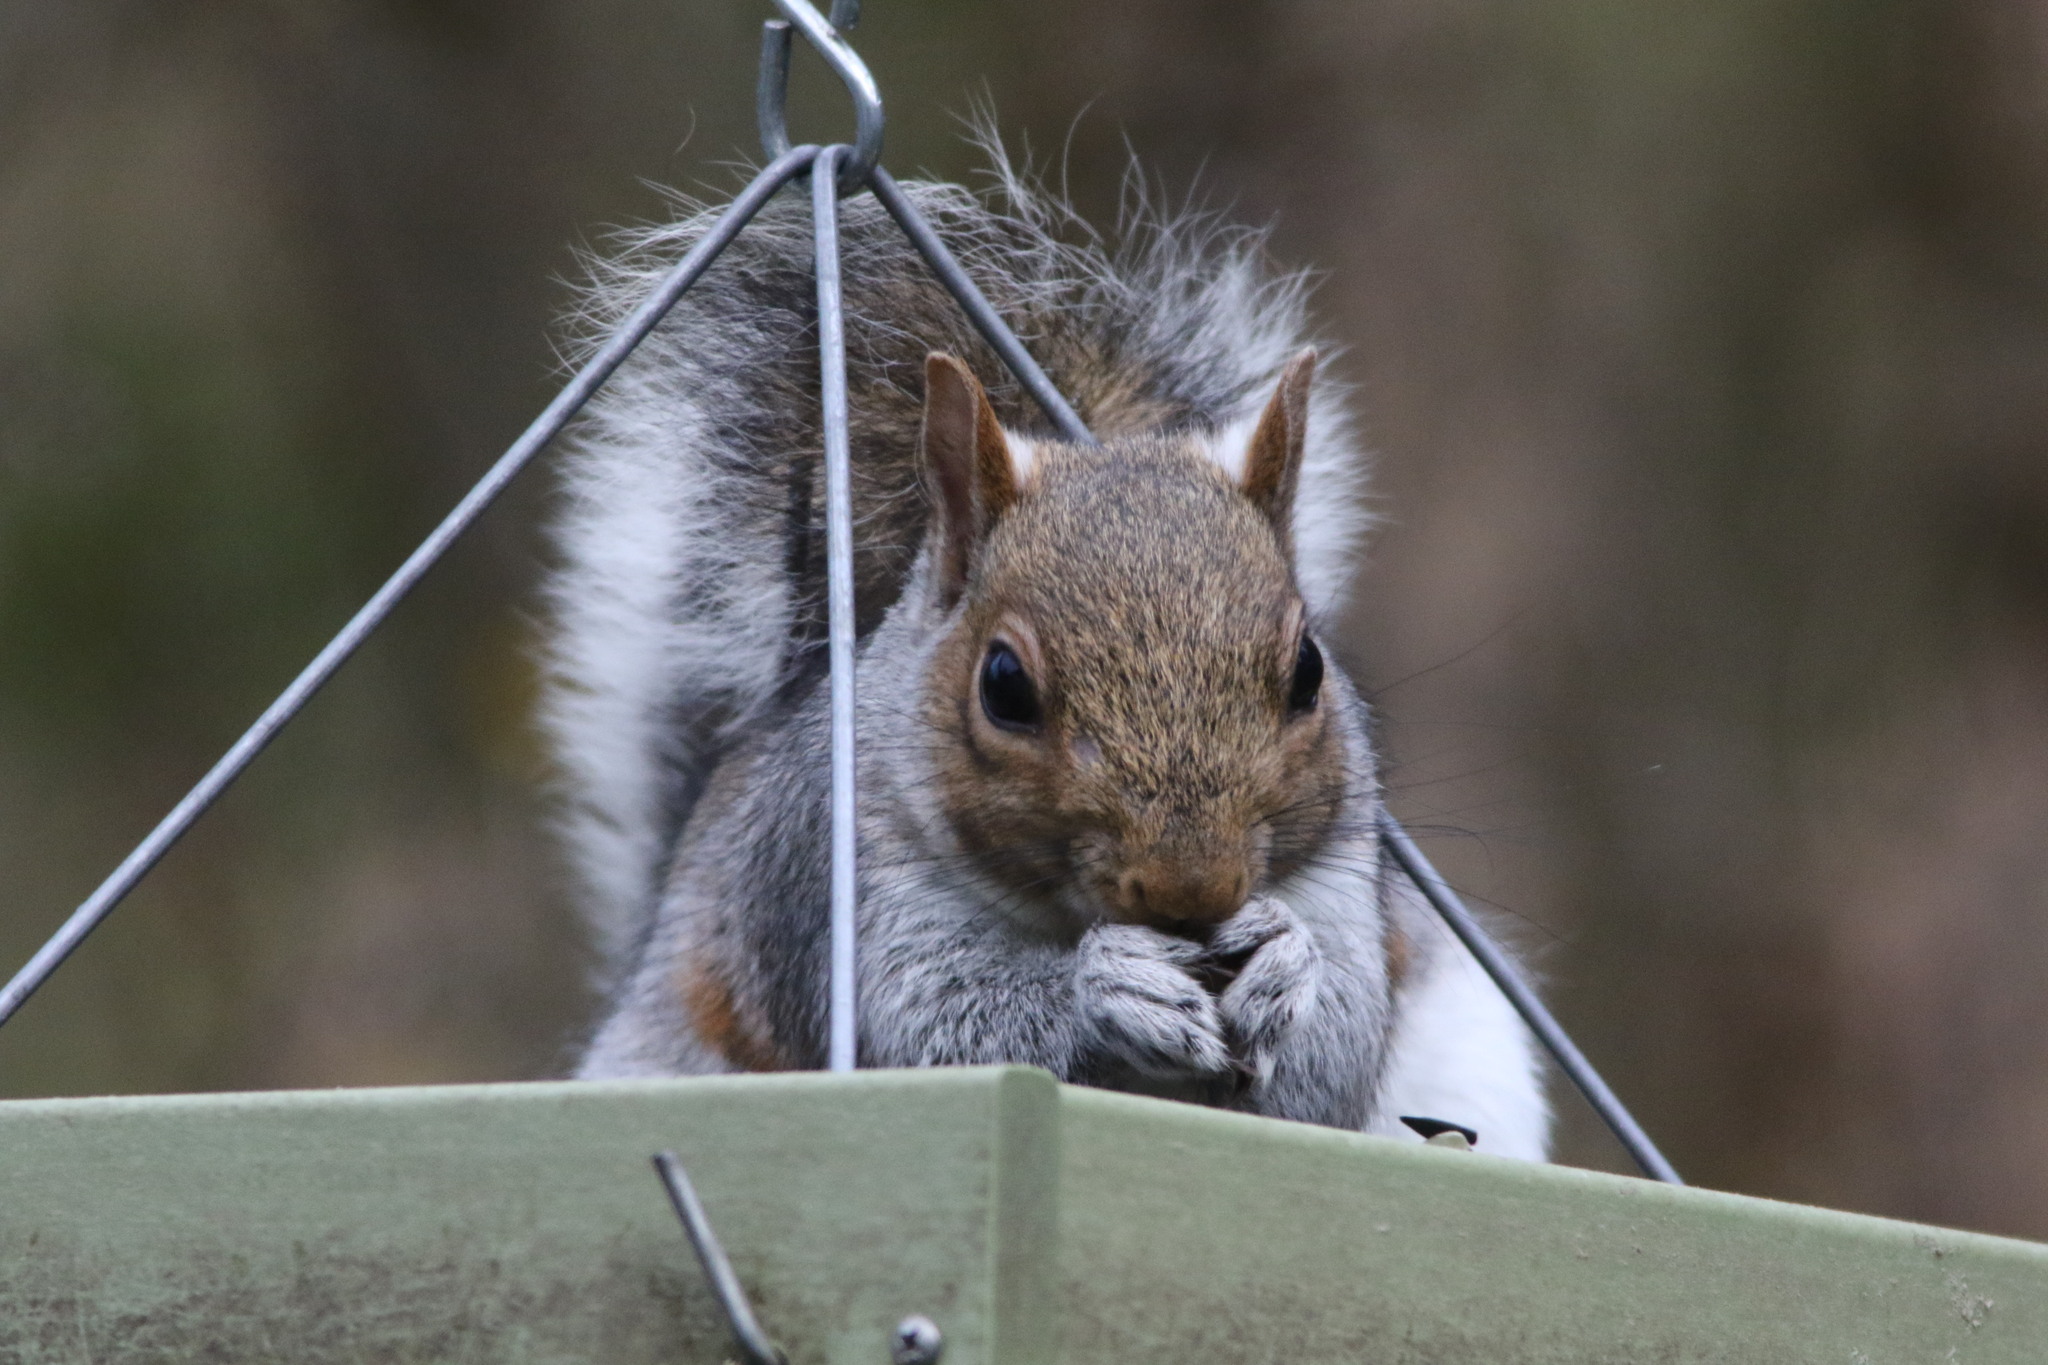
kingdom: Animalia
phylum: Chordata
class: Mammalia
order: Rodentia
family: Sciuridae
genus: Sciurus
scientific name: Sciurus carolinensis
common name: Eastern gray squirrel
